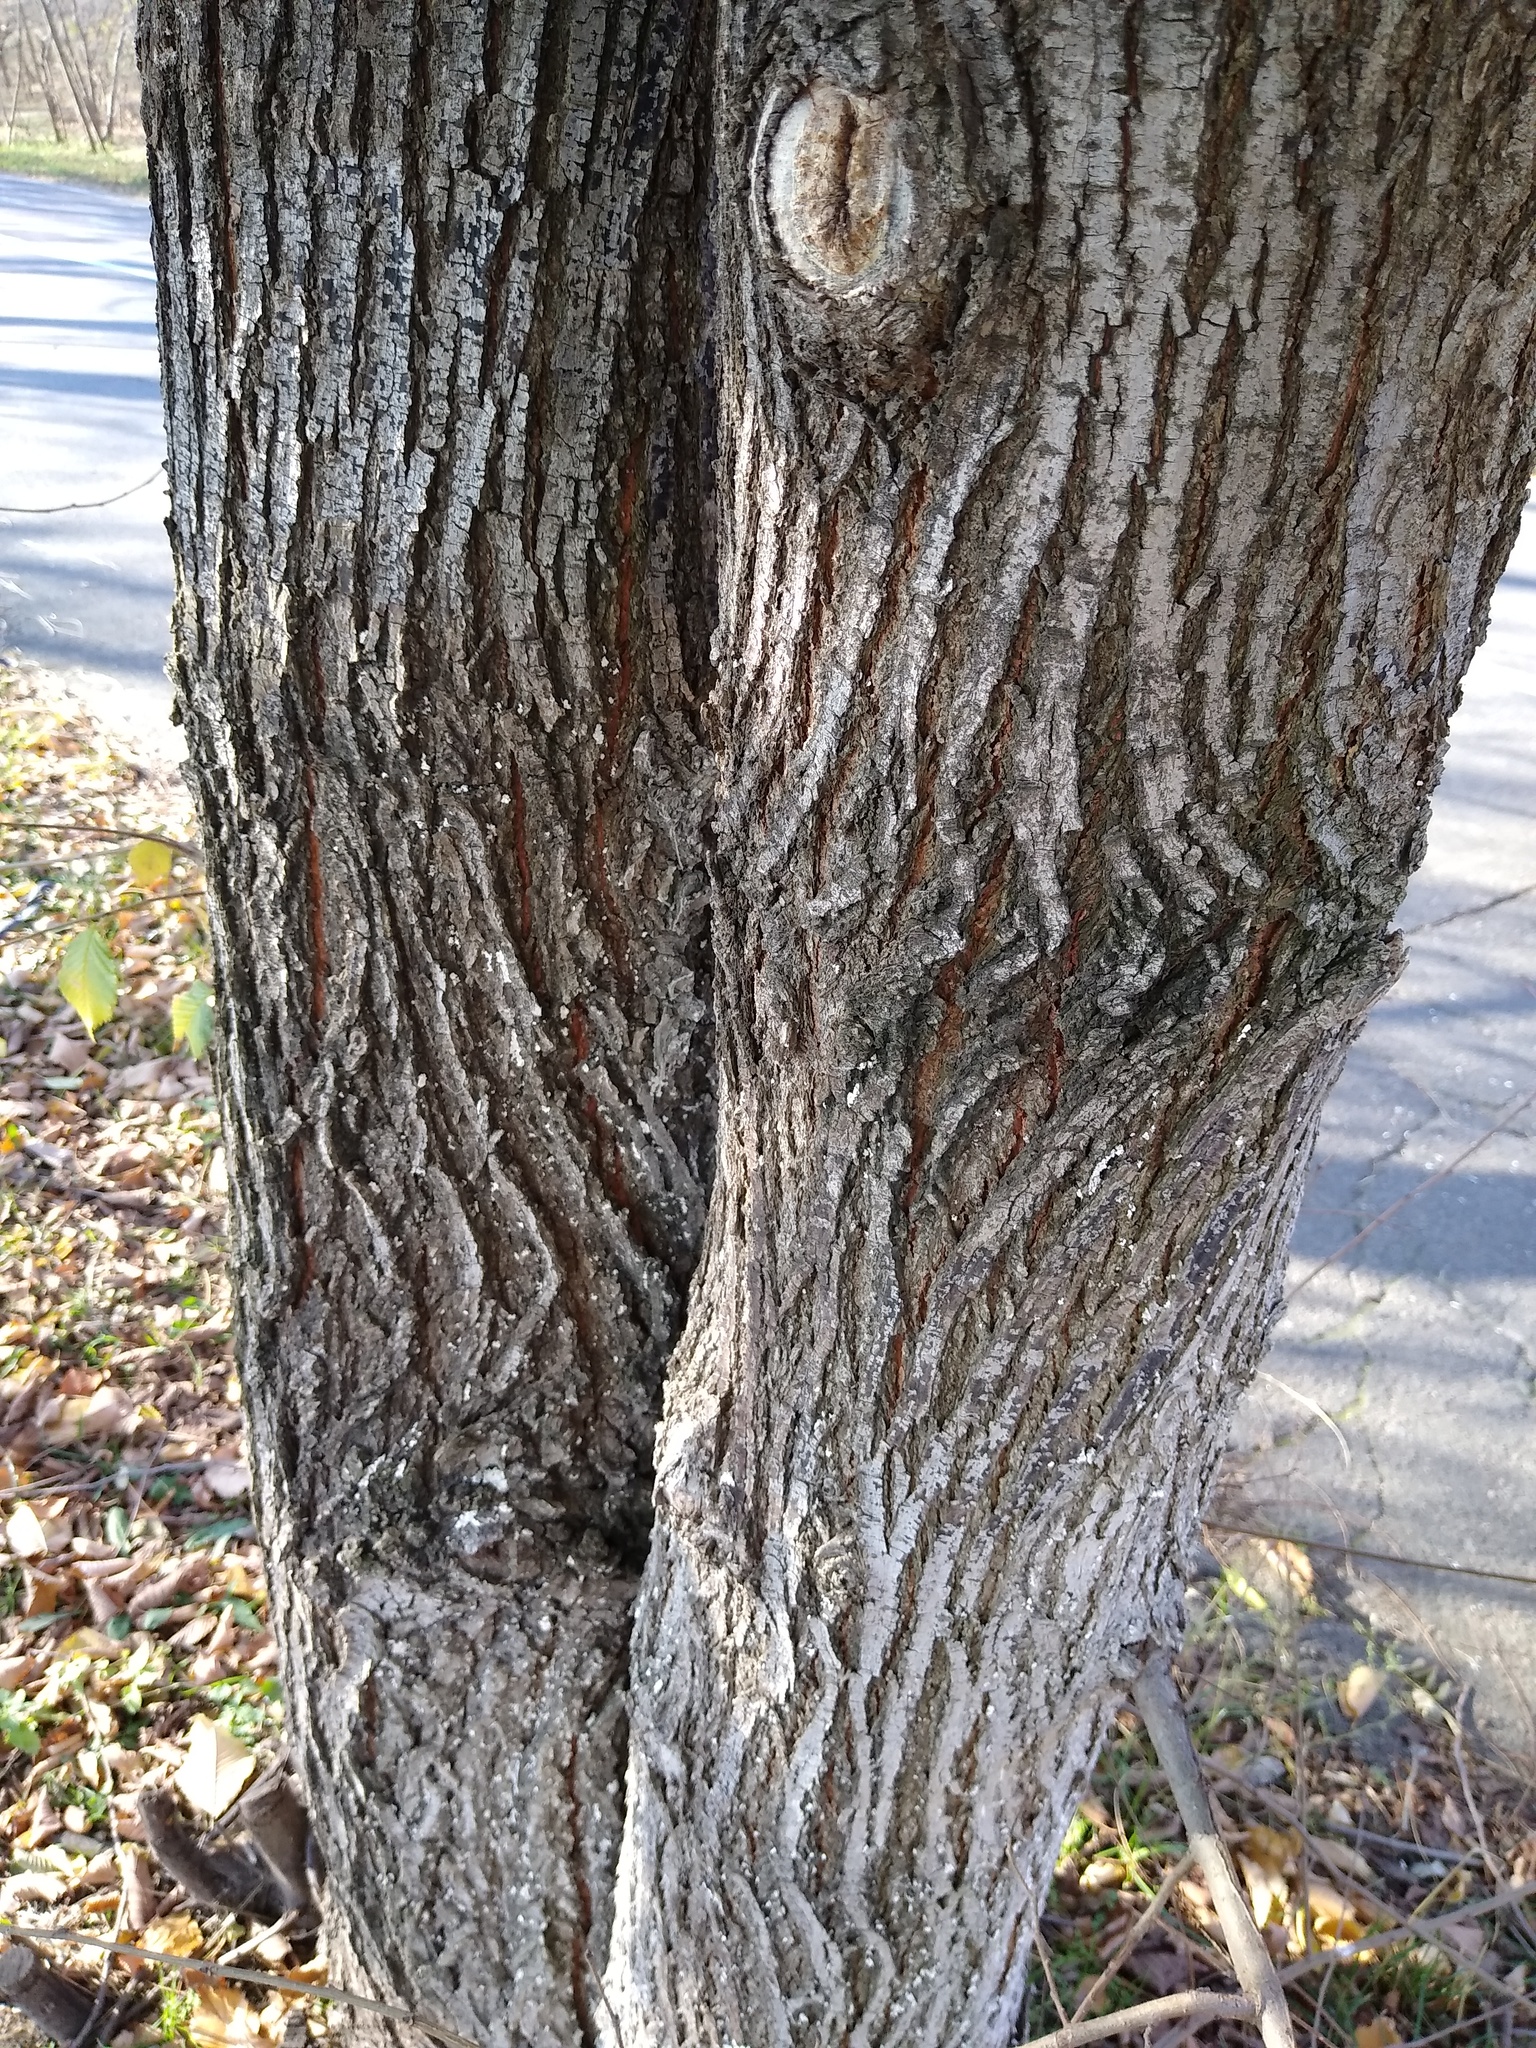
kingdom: Plantae
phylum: Tracheophyta
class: Magnoliopsida
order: Rosales
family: Ulmaceae
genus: Ulmus
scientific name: Ulmus laevis
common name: European white-elm
